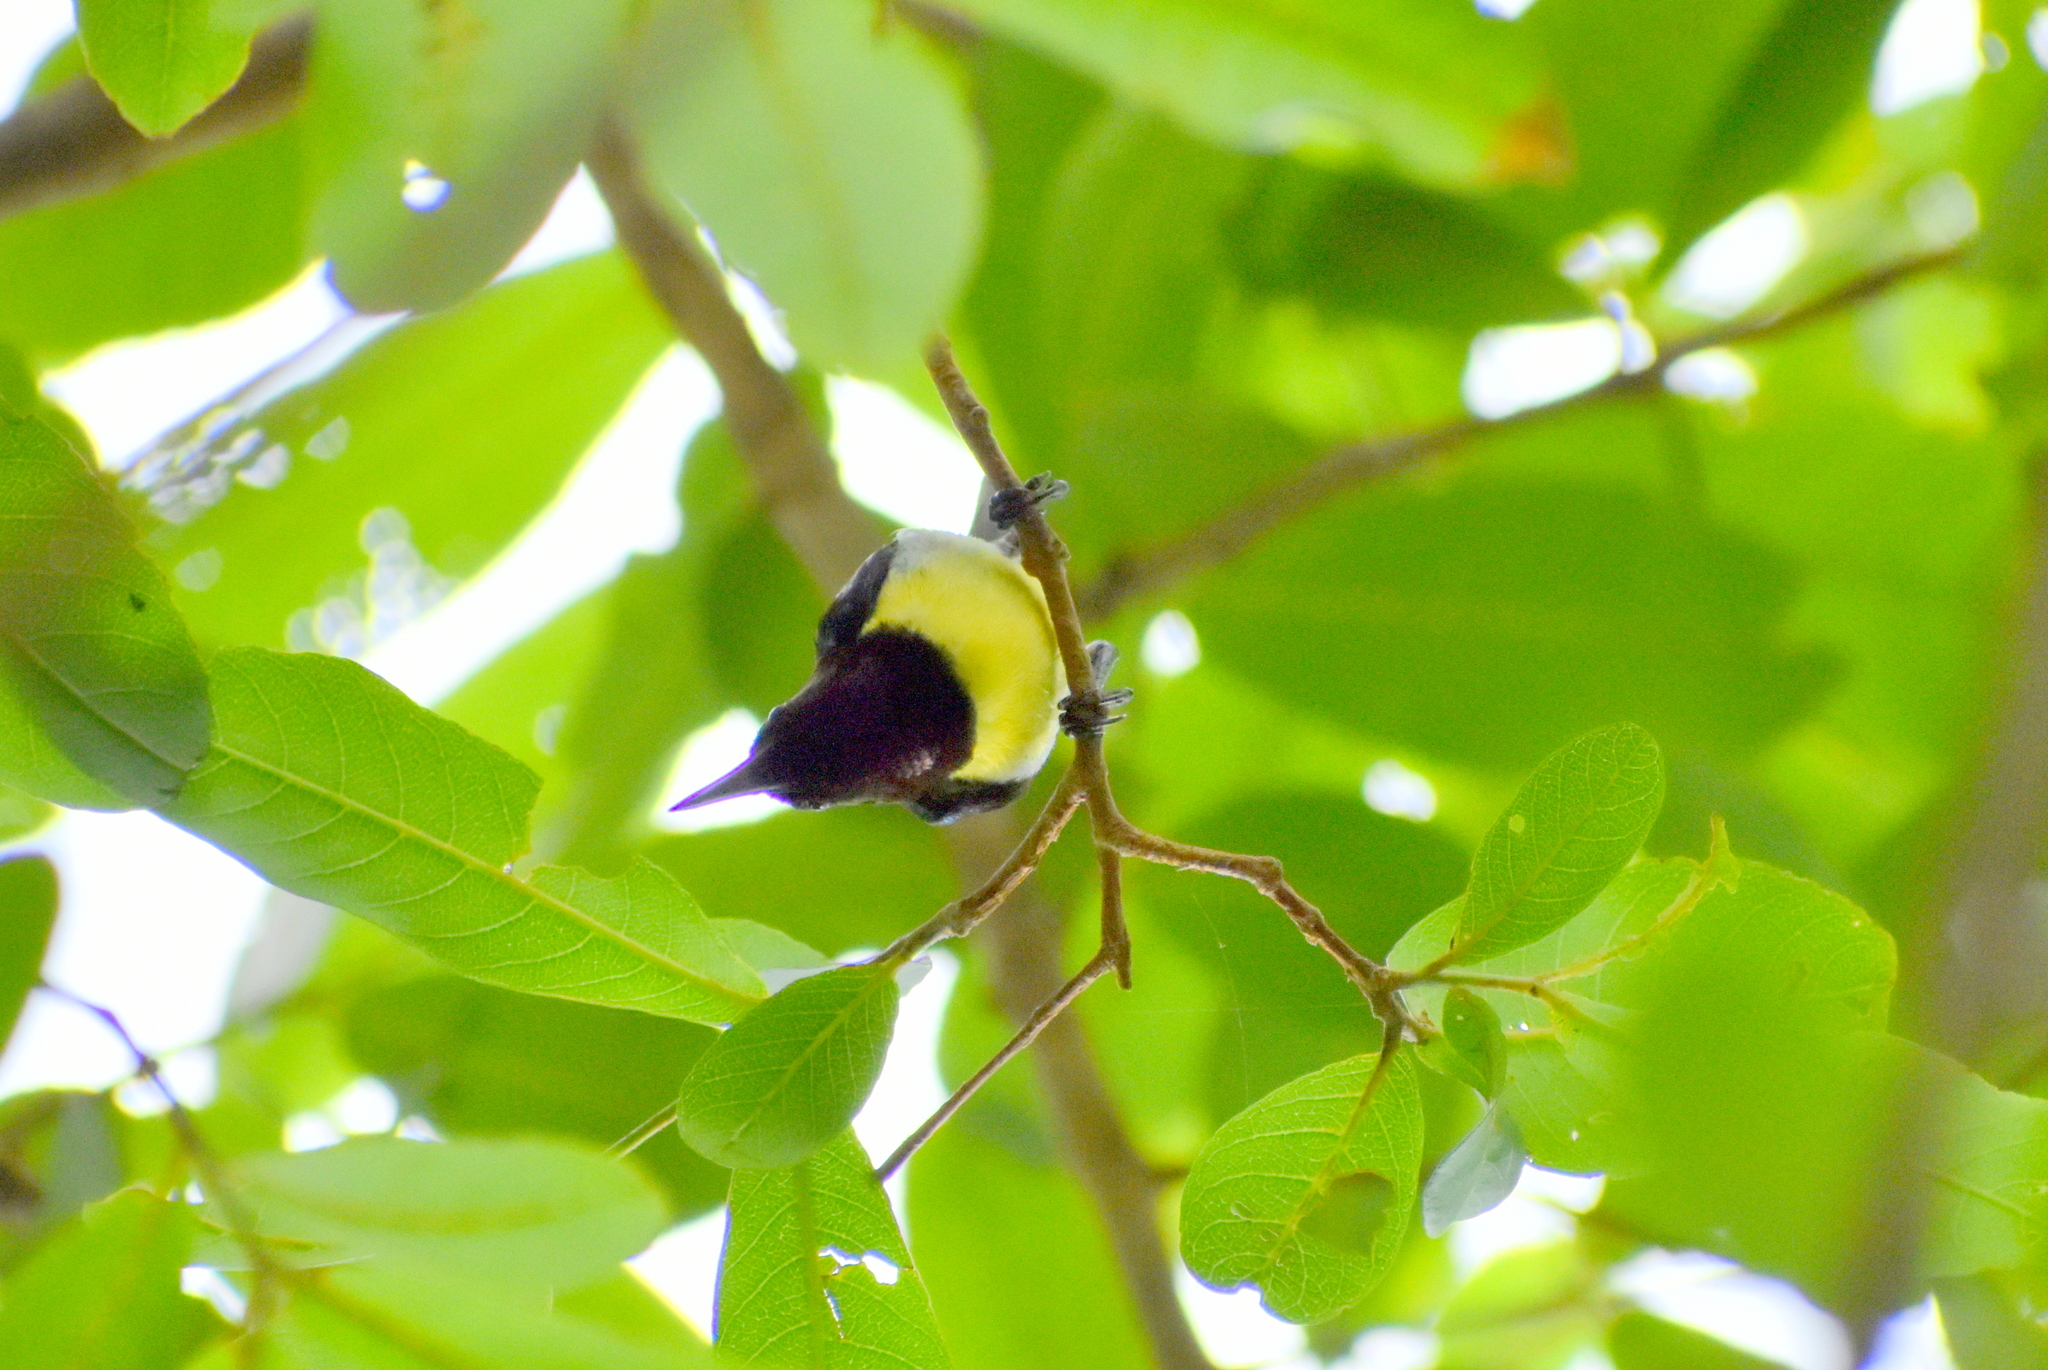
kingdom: Animalia
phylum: Chordata
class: Aves
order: Passeriformes
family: Nectariniidae
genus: Leptocoma
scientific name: Leptocoma zeylonica
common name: Purple-rumped sunbird
